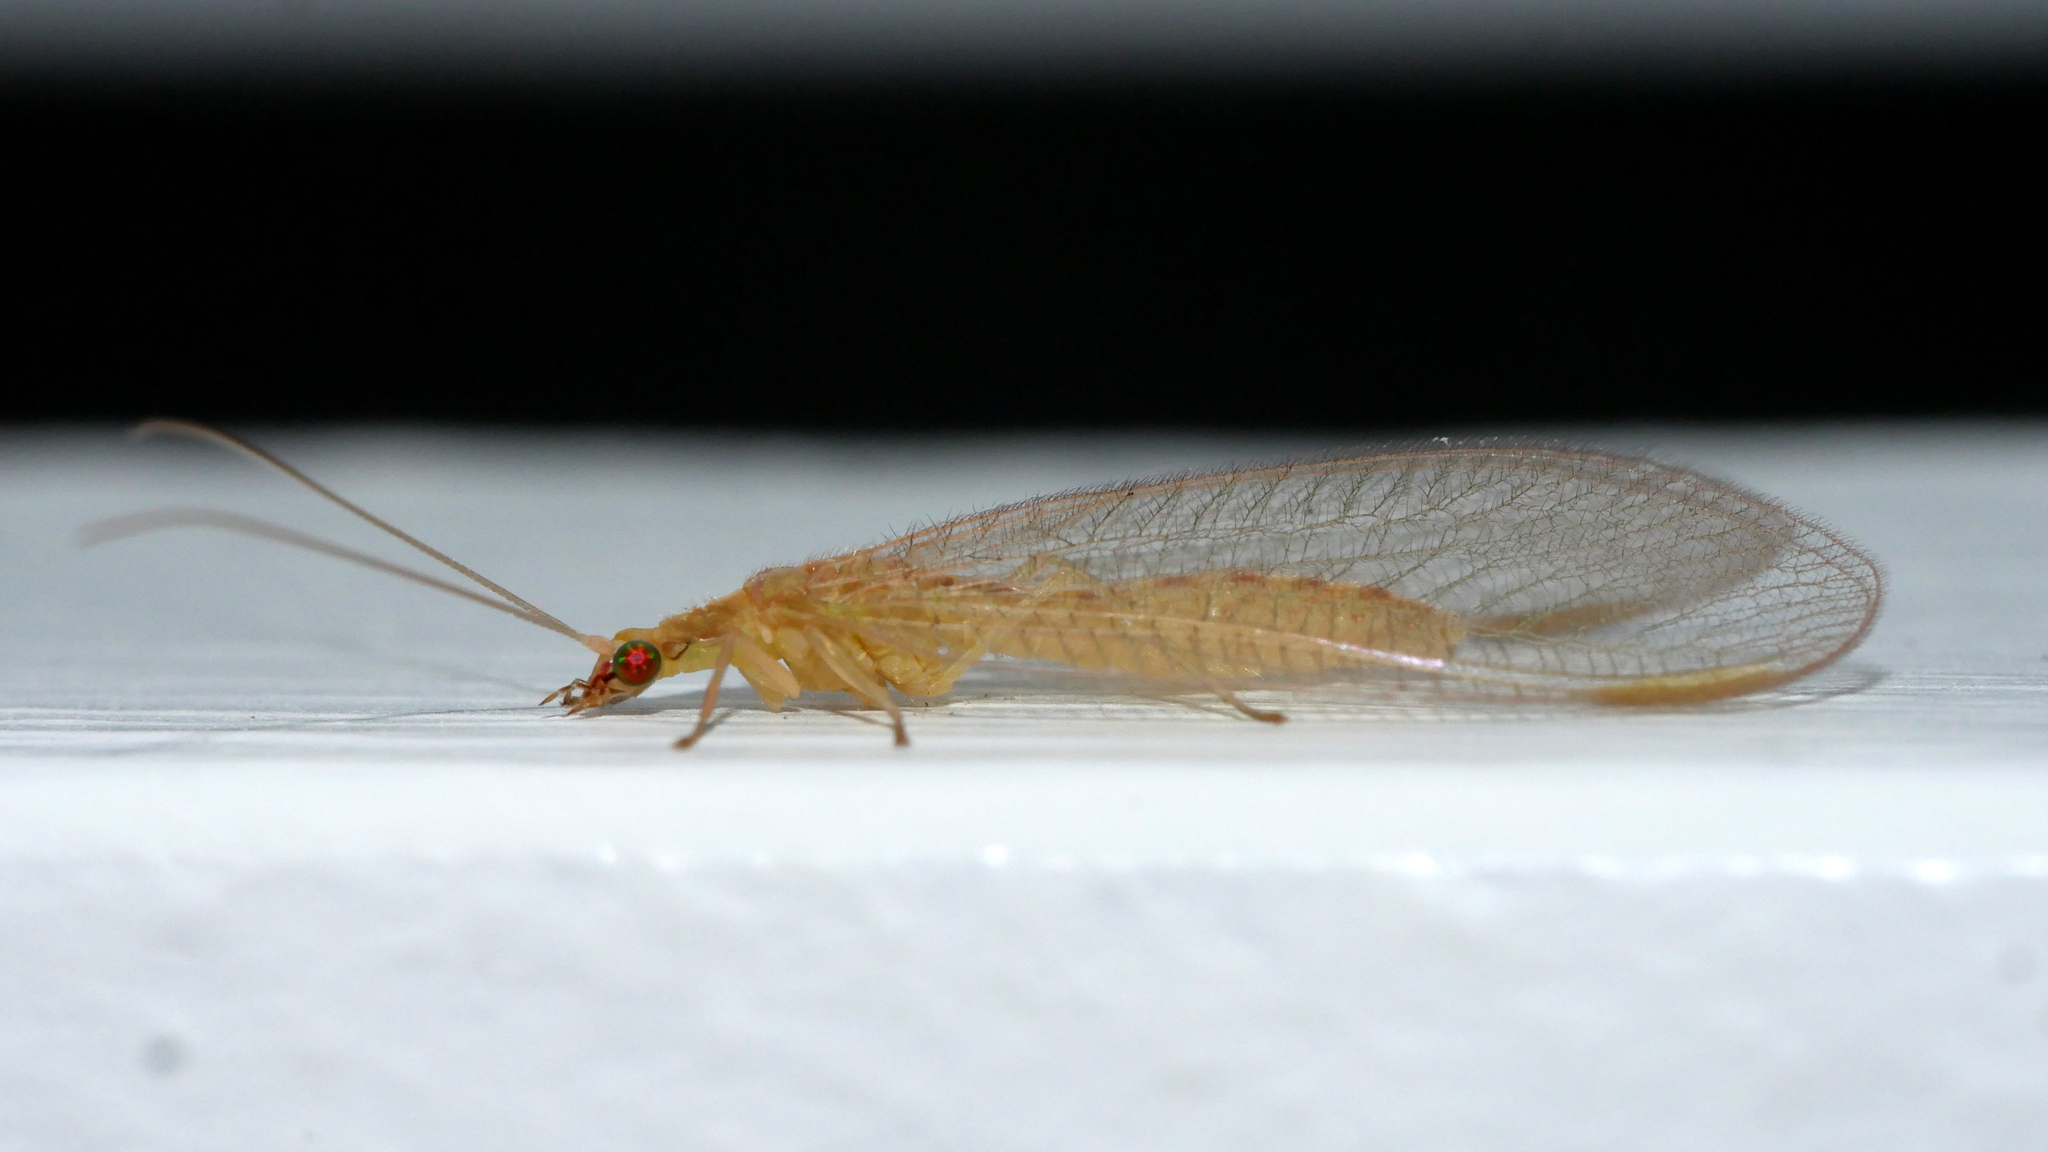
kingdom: Animalia
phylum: Arthropoda
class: Insecta
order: Neuroptera
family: Chrysopidae
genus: Chrysoperla
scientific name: Chrysoperla
